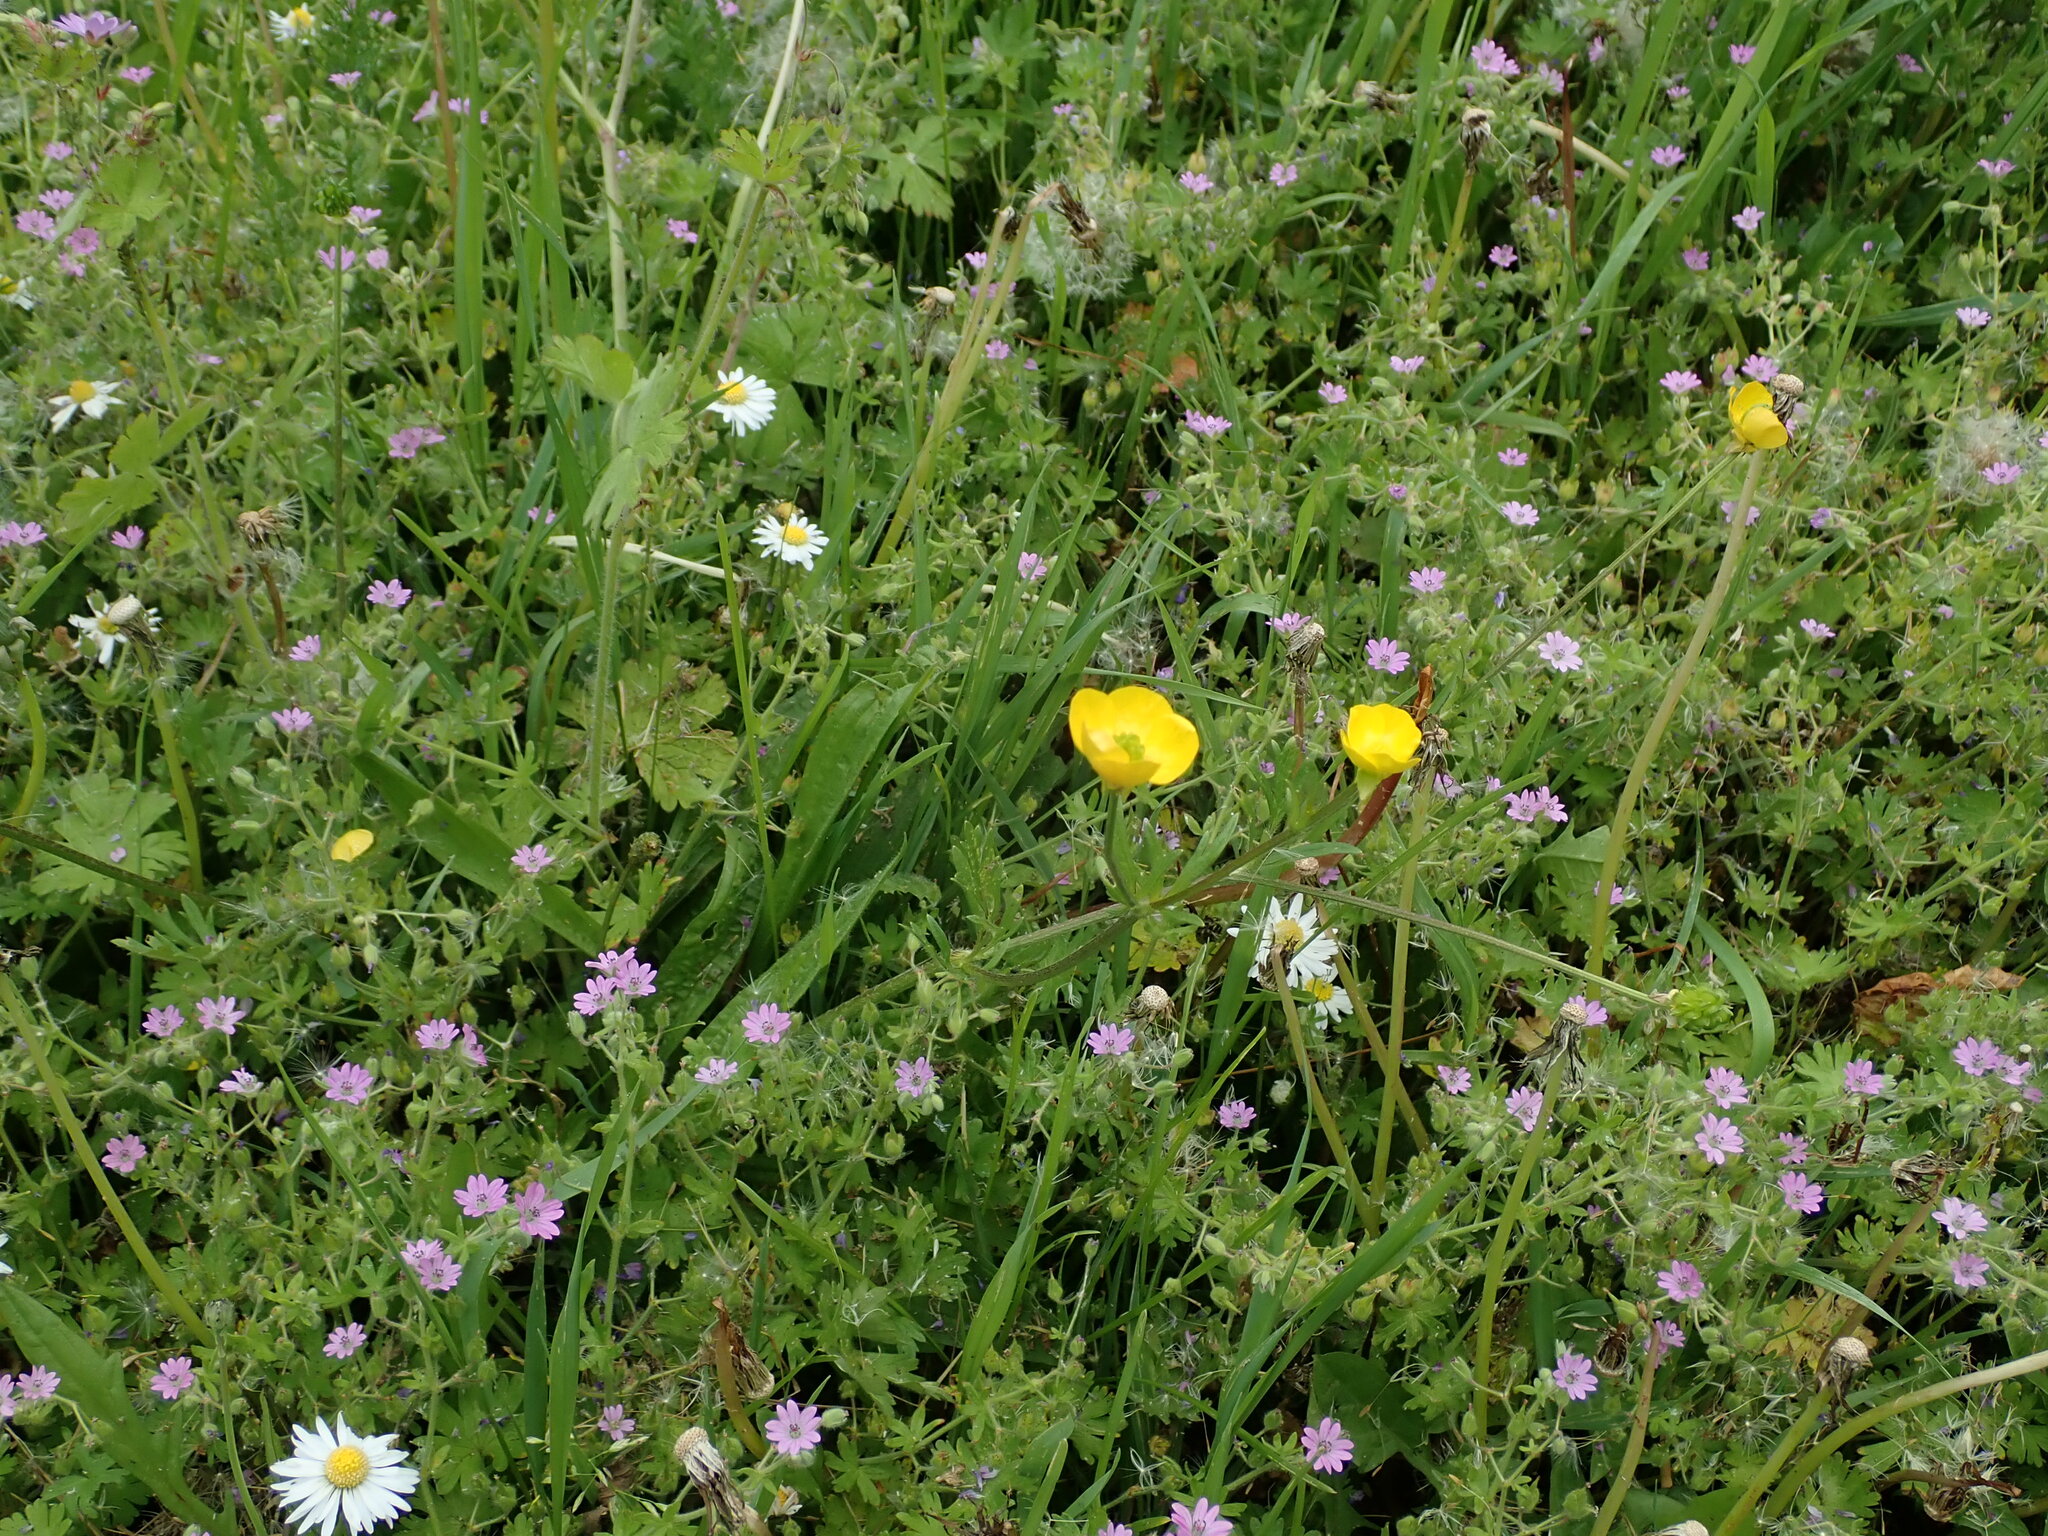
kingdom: Plantae
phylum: Tracheophyta
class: Magnoliopsida
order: Ranunculales
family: Ranunculaceae
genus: Ranunculus
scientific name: Ranunculus bulbosus
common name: Bulbous buttercup
